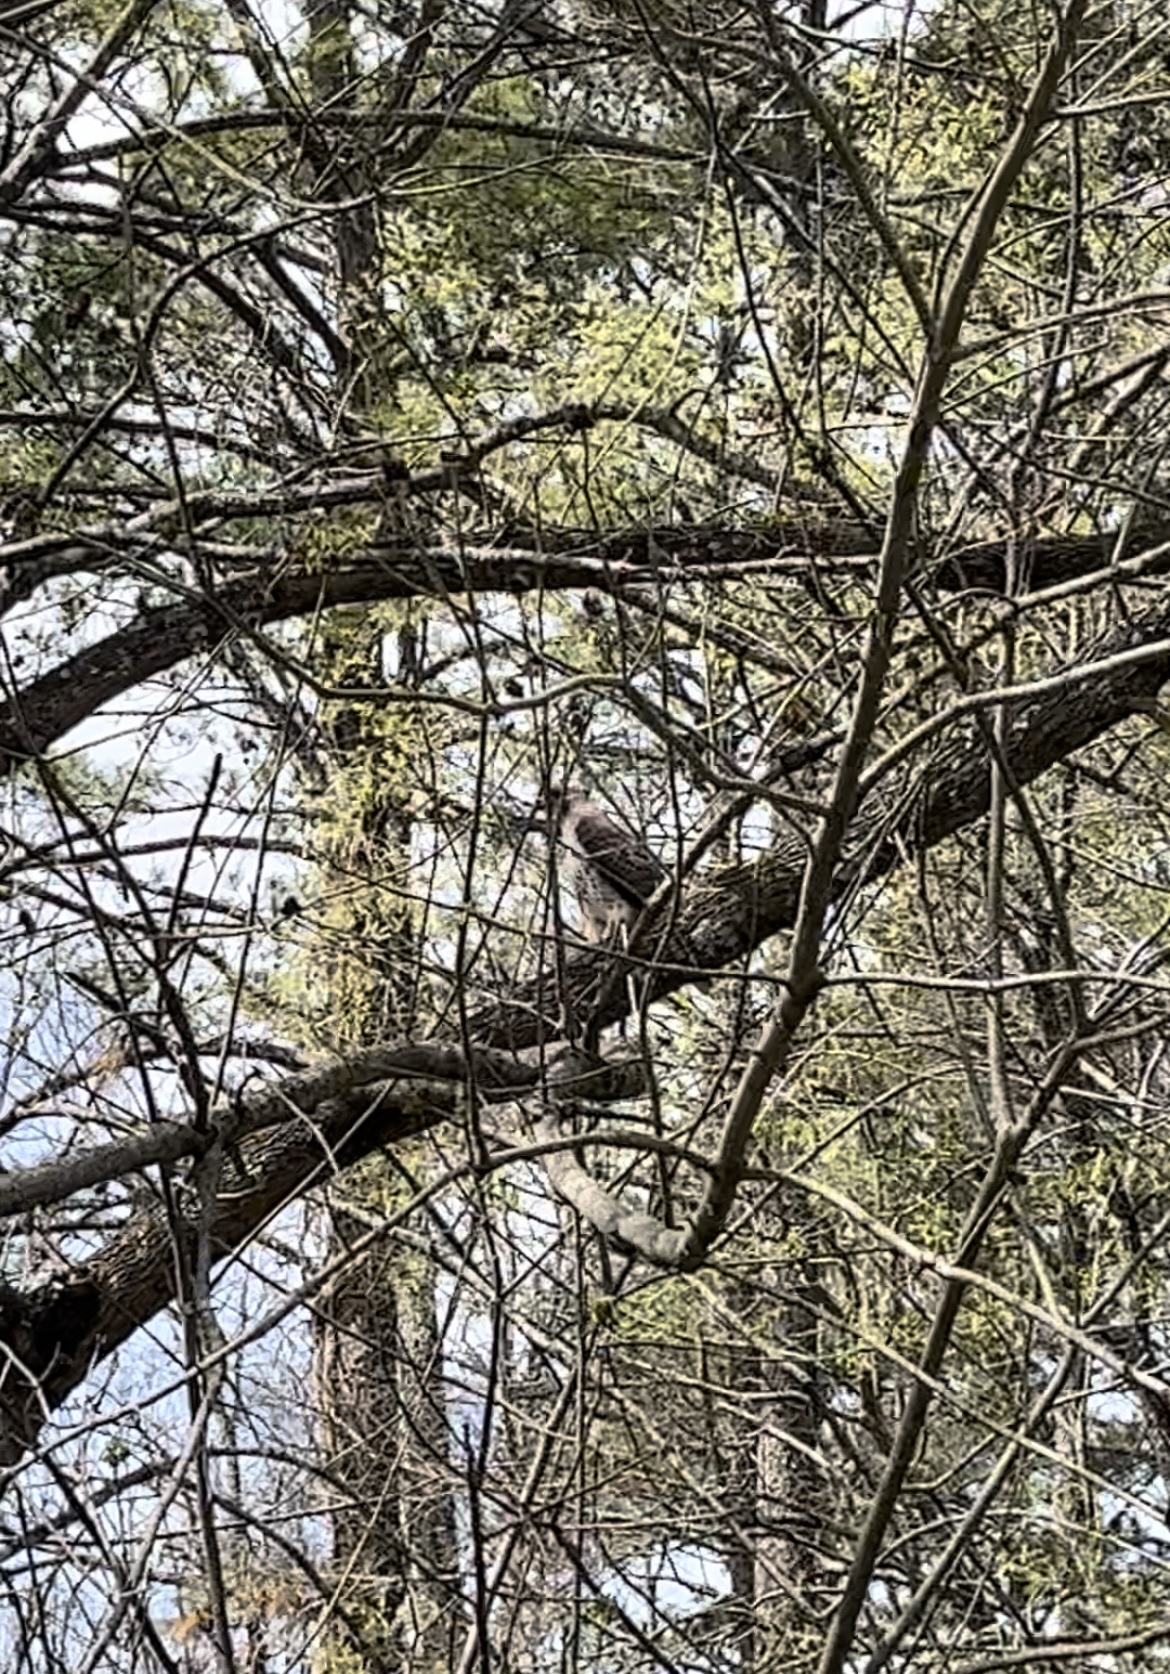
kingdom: Animalia
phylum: Chordata
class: Aves
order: Accipitriformes
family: Accipitridae
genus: Buteo
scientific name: Buteo jamaicensis
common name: Red-tailed hawk
